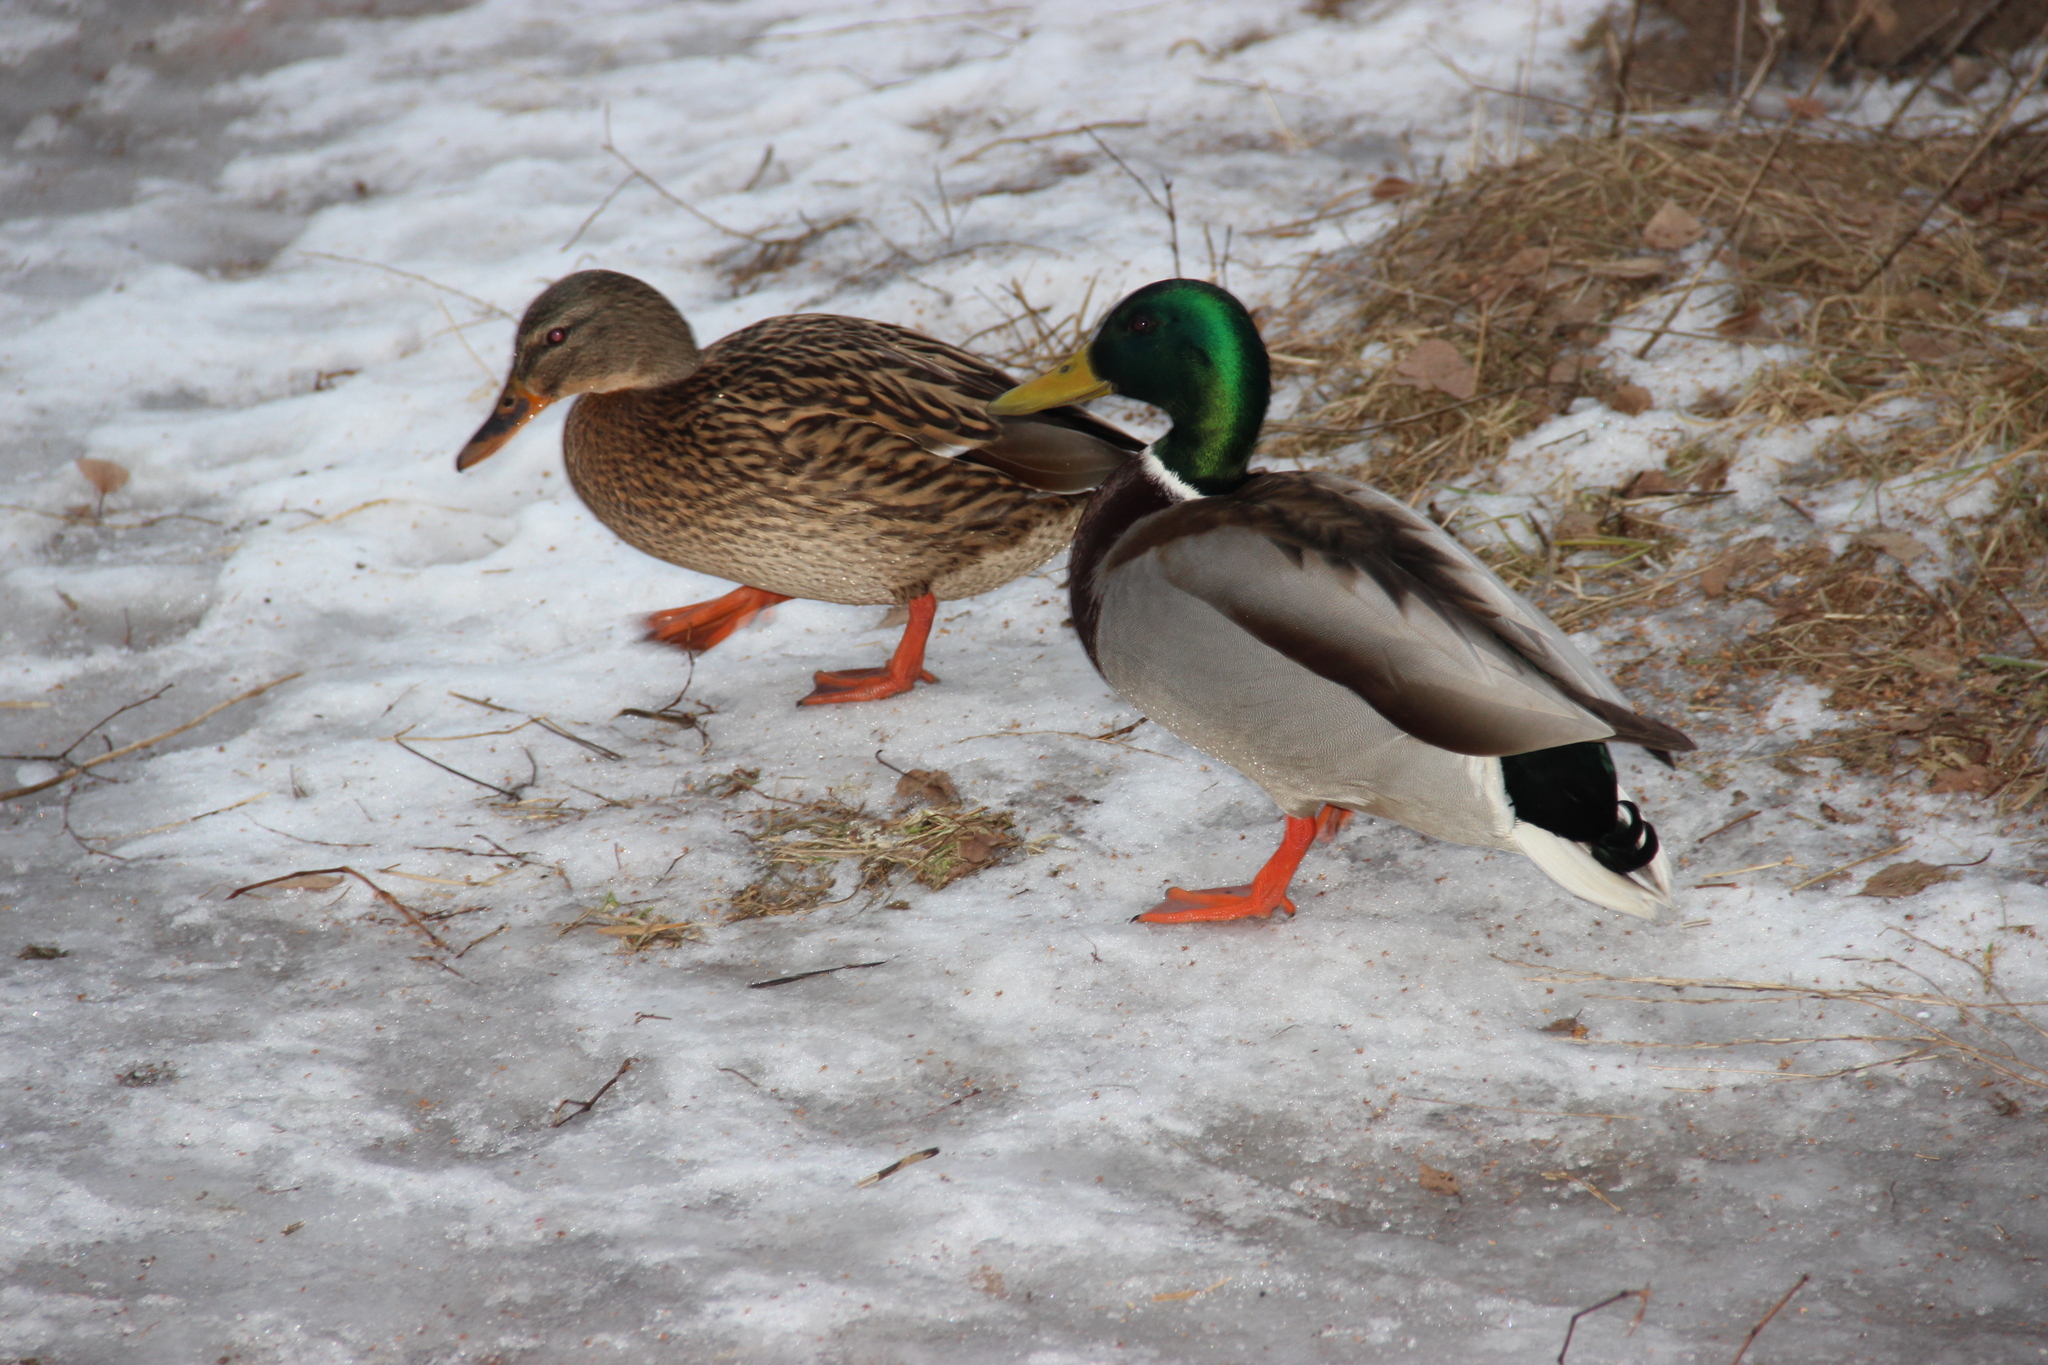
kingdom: Animalia
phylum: Chordata
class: Aves
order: Anseriformes
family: Anatidae
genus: Anas
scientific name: Anas platyrhynchos
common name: Mallard
